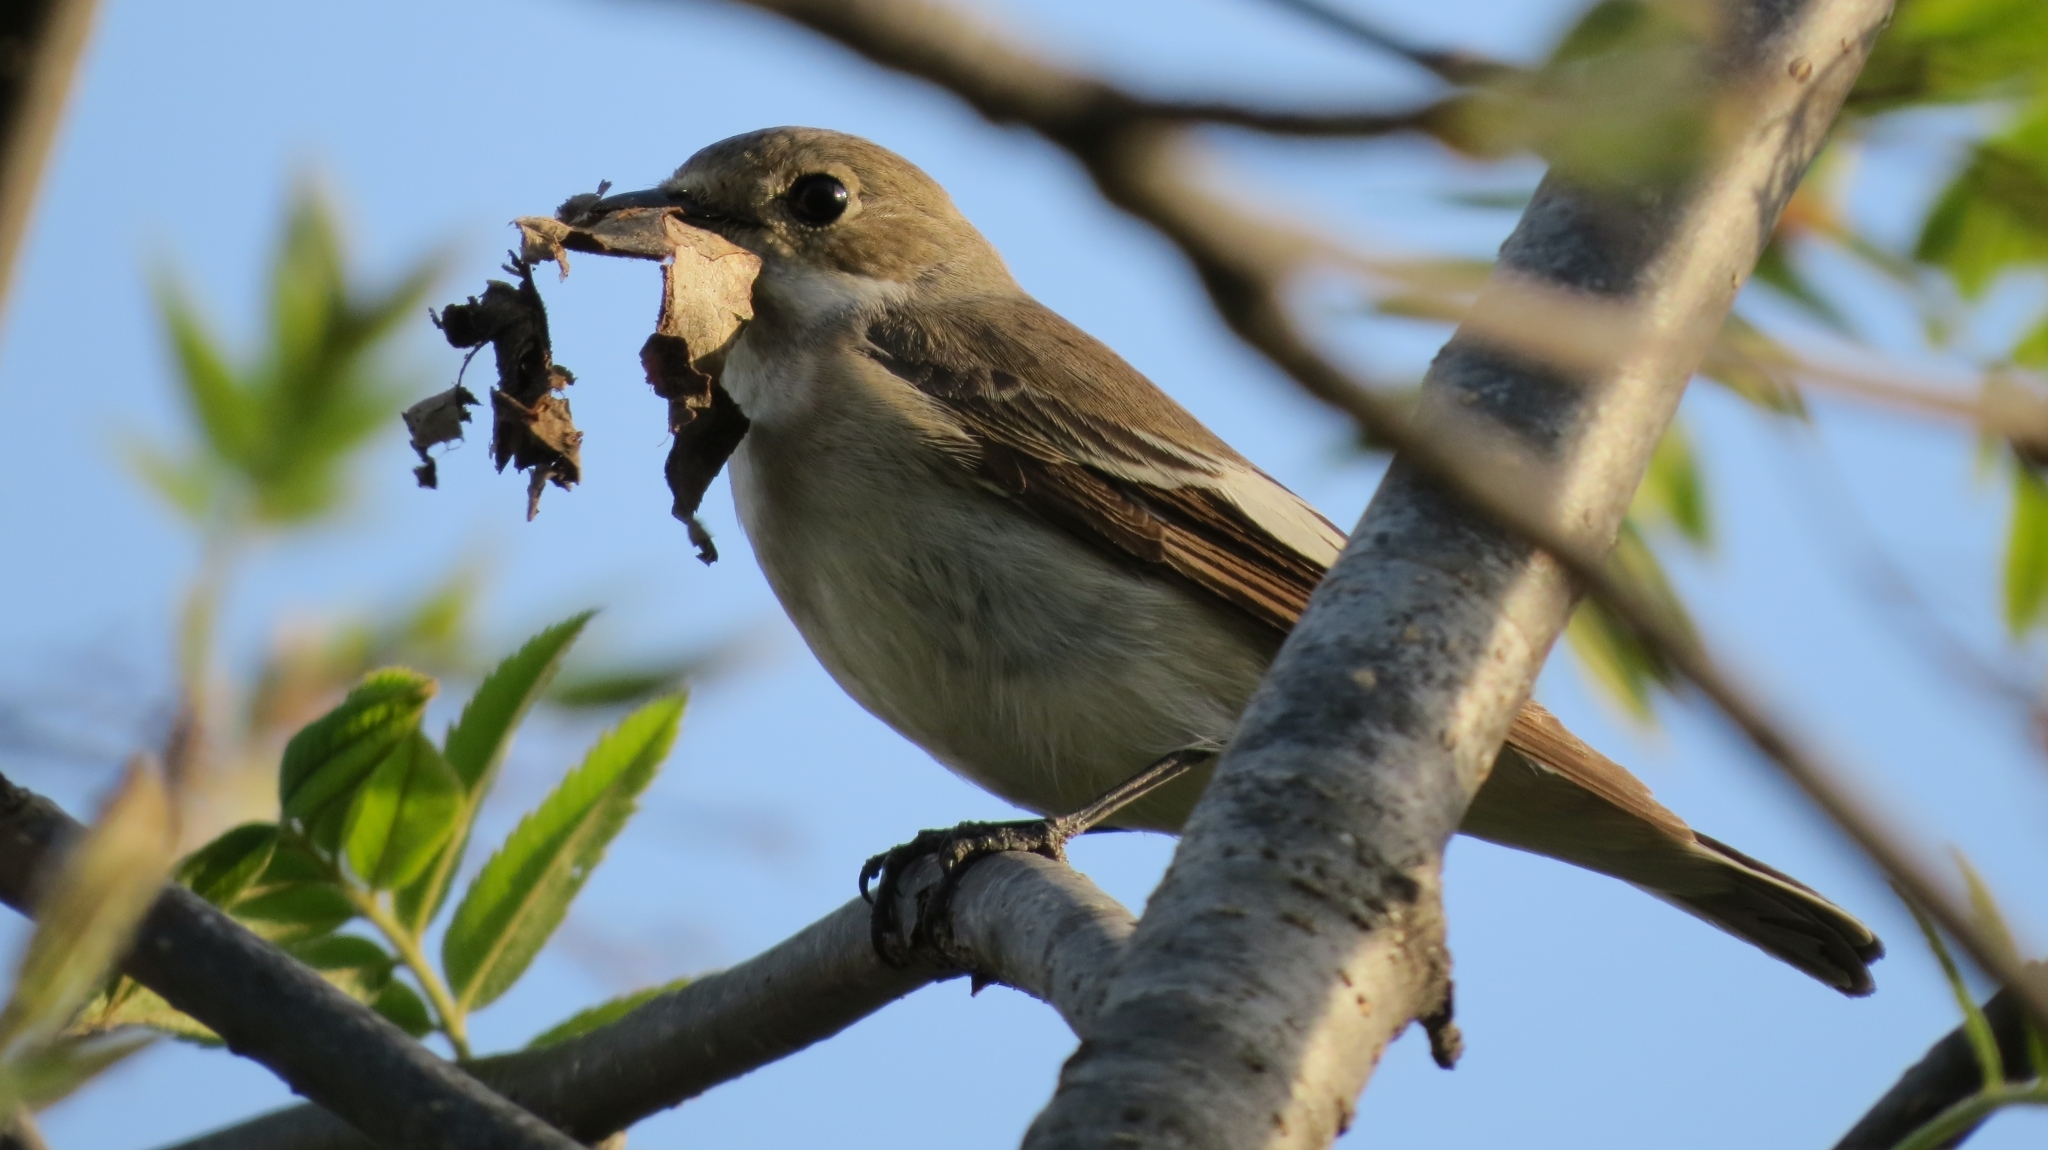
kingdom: Animalia
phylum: Chordata
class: Aves
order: Passeriformes
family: Muscicapidae
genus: Ficedula
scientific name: Ficedula hypoleuca
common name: European pied flycatcher
